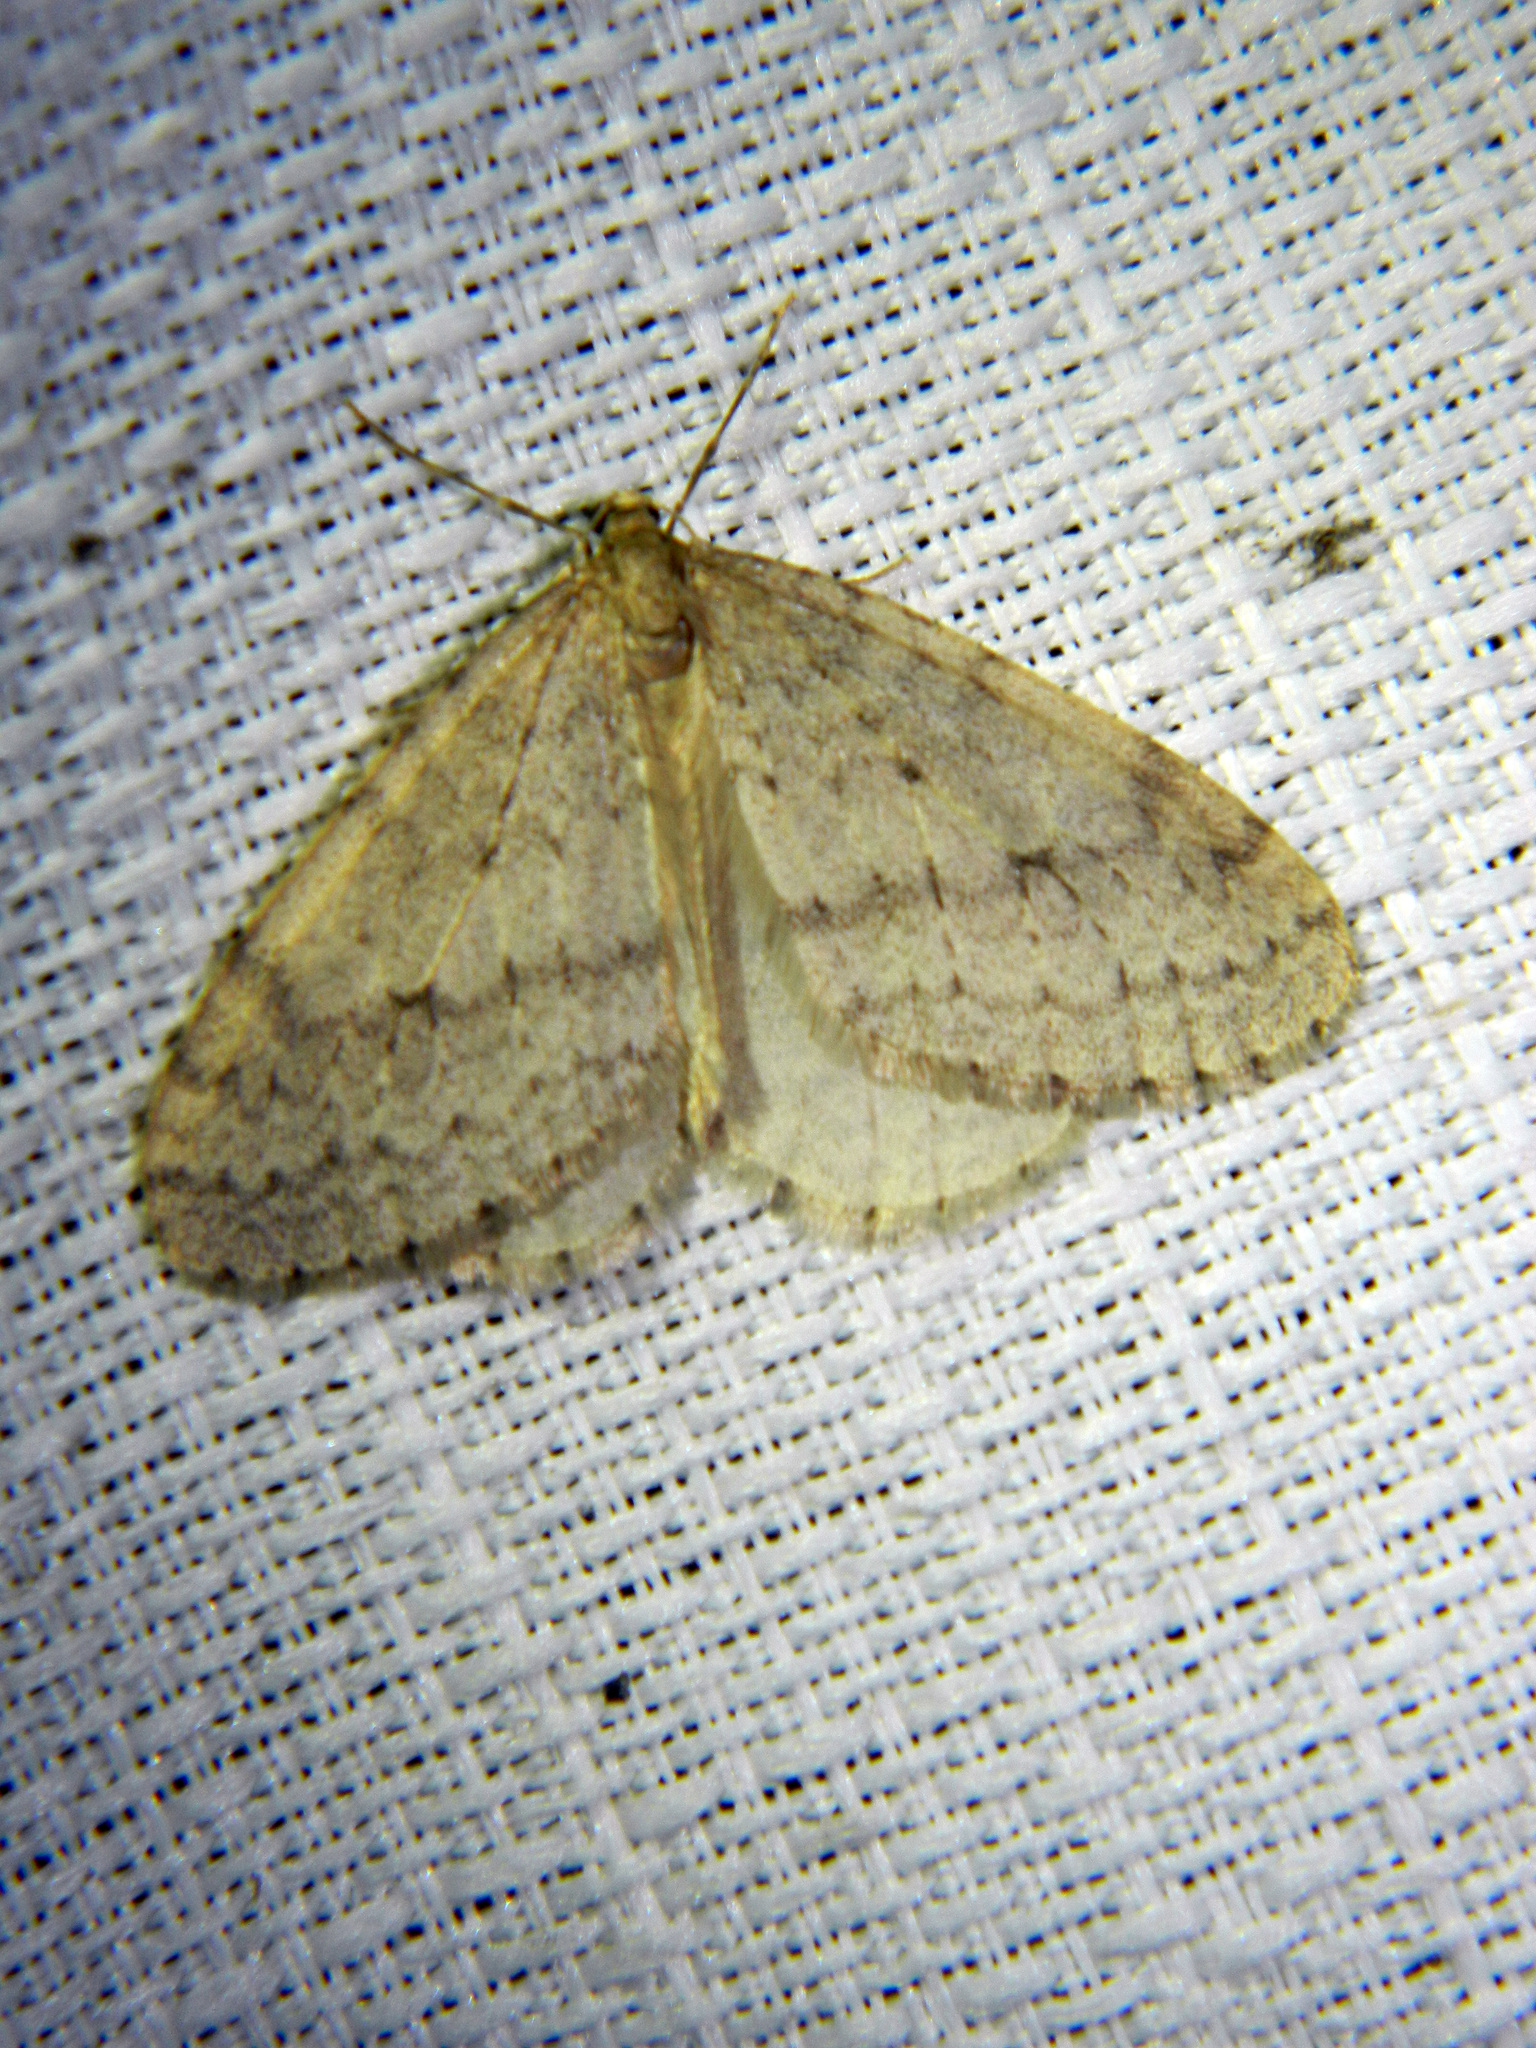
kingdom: Animalia
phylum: Arthropoda
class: Insecta
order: Lepidoptera
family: Geometridae
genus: Operophtera
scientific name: Operophtera bruceata
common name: Bruce spanworm
